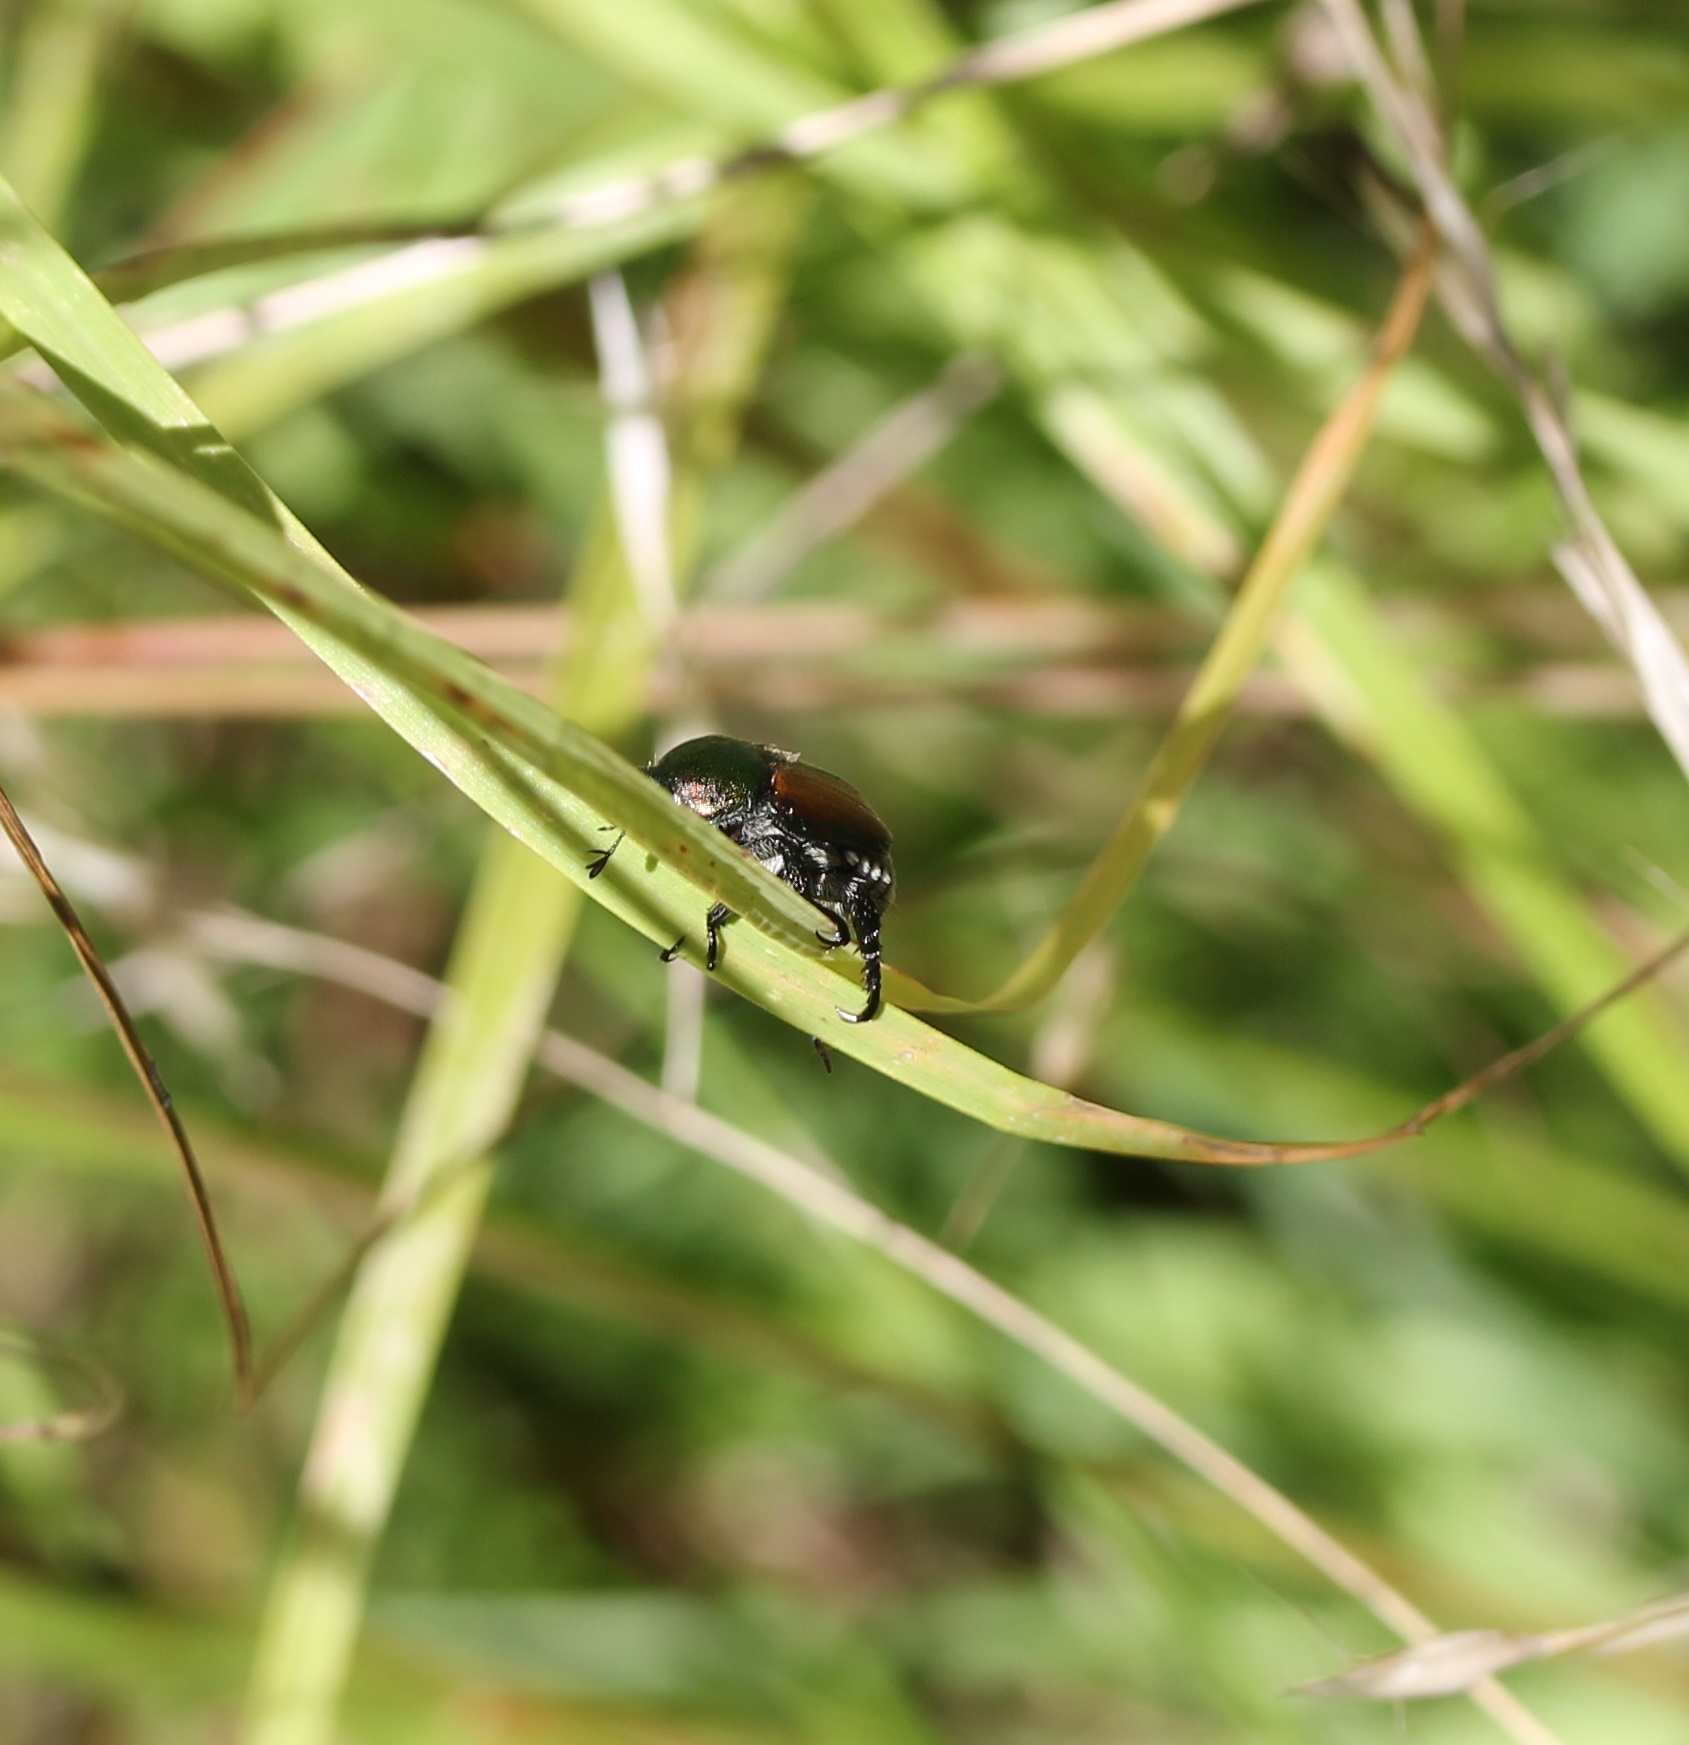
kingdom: Animalia
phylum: Arthropoda
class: Insecta
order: Coleoptera
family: Scarabaeidae
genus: Popillia
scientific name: Popillia japonica
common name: Japanese beetle
